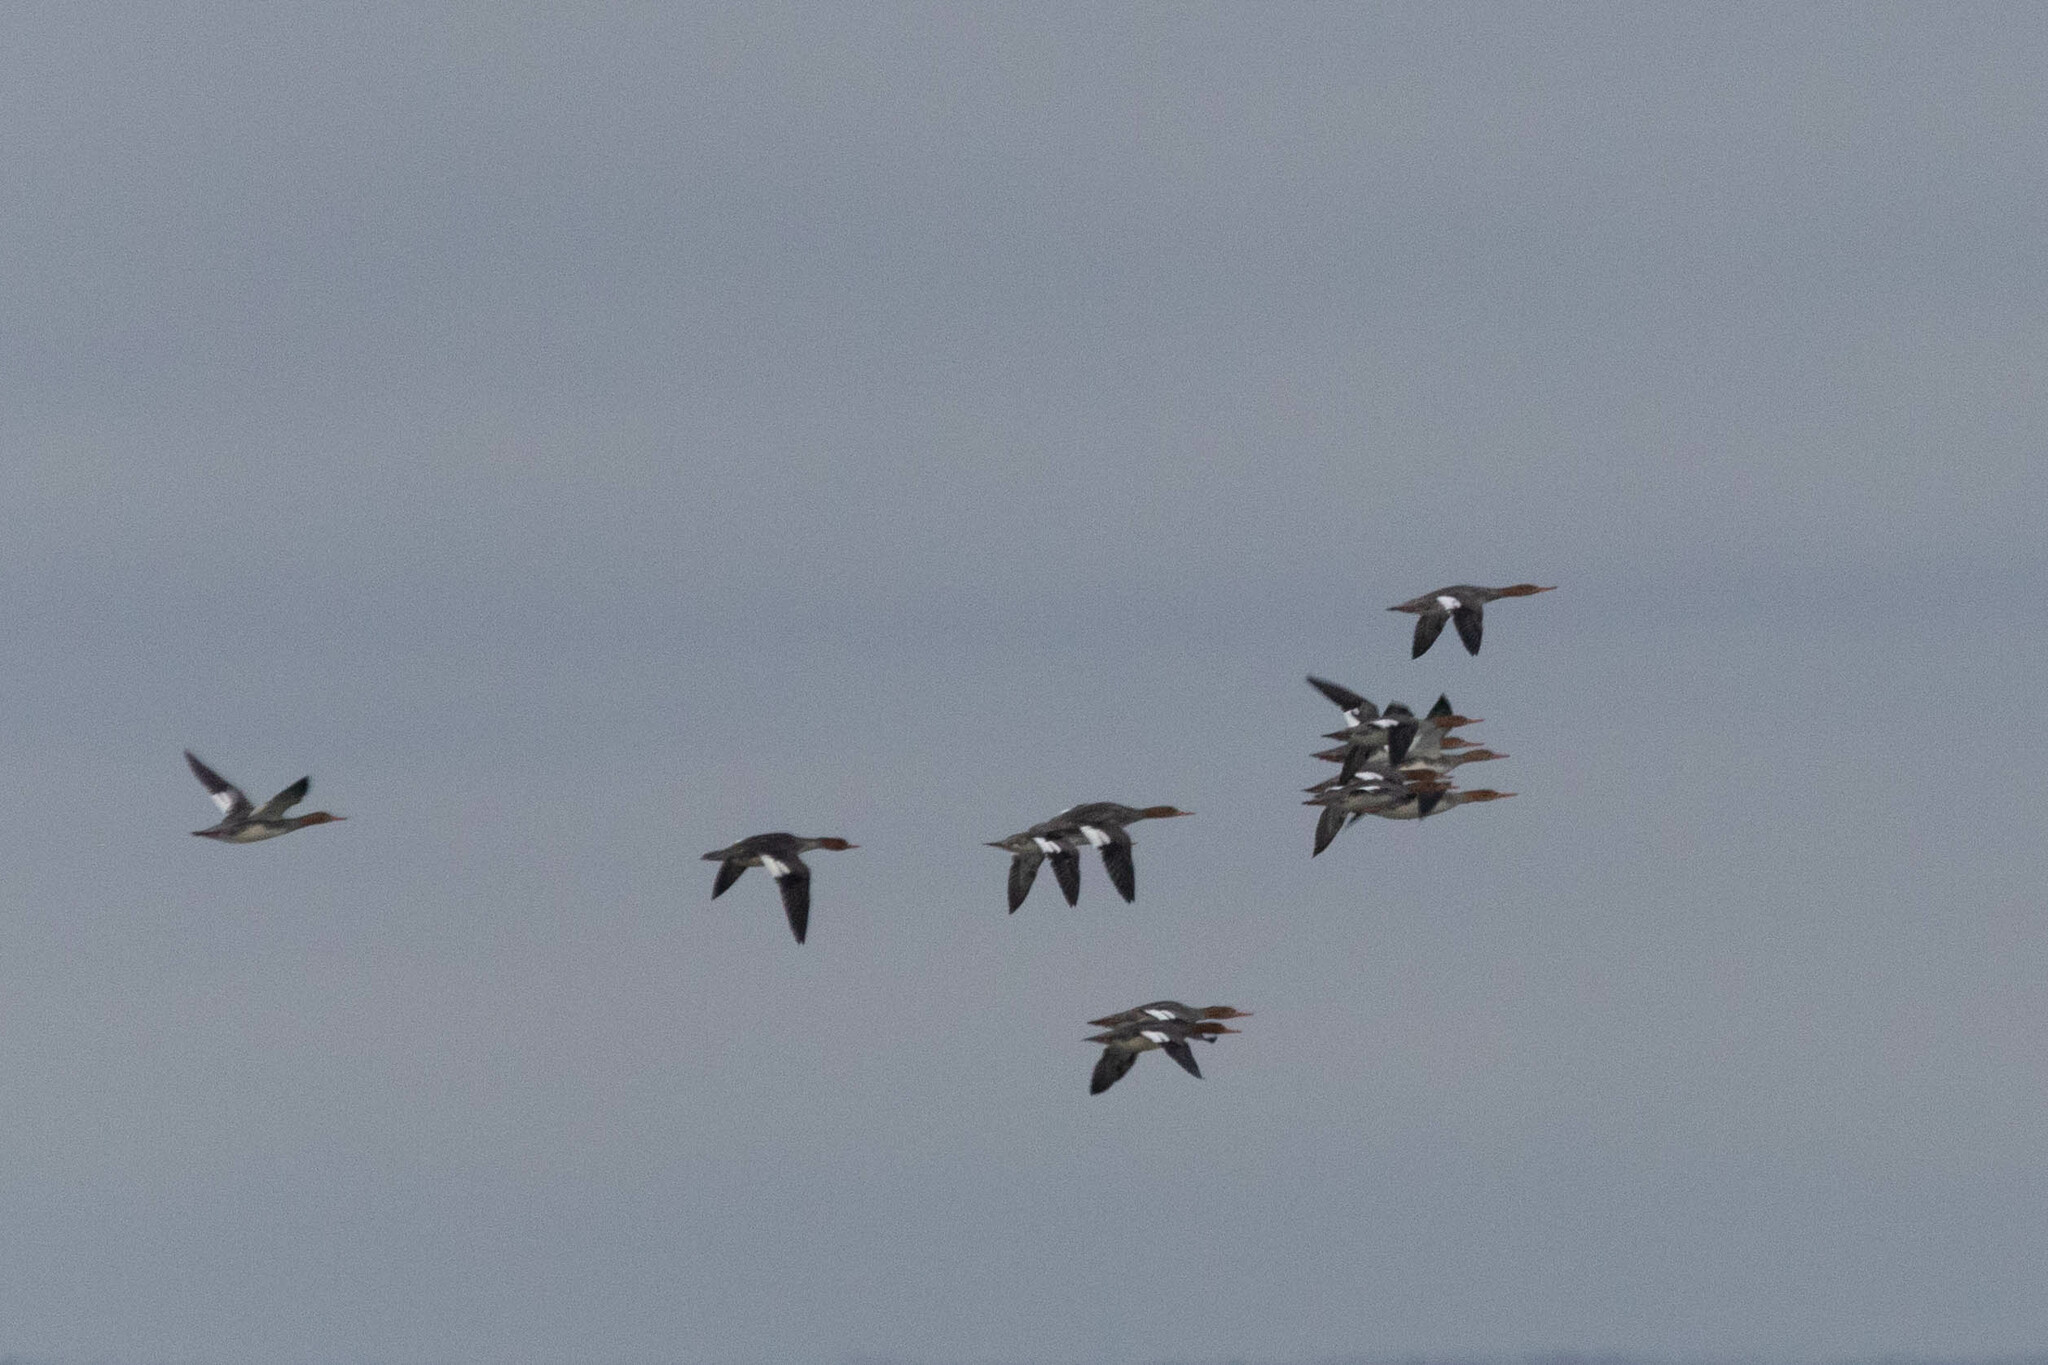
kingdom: Animalia
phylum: Chordata
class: Aves
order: Anseriformes
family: Anatidae
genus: Mergus
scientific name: Mergus serrator
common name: Red-breasted merganser
